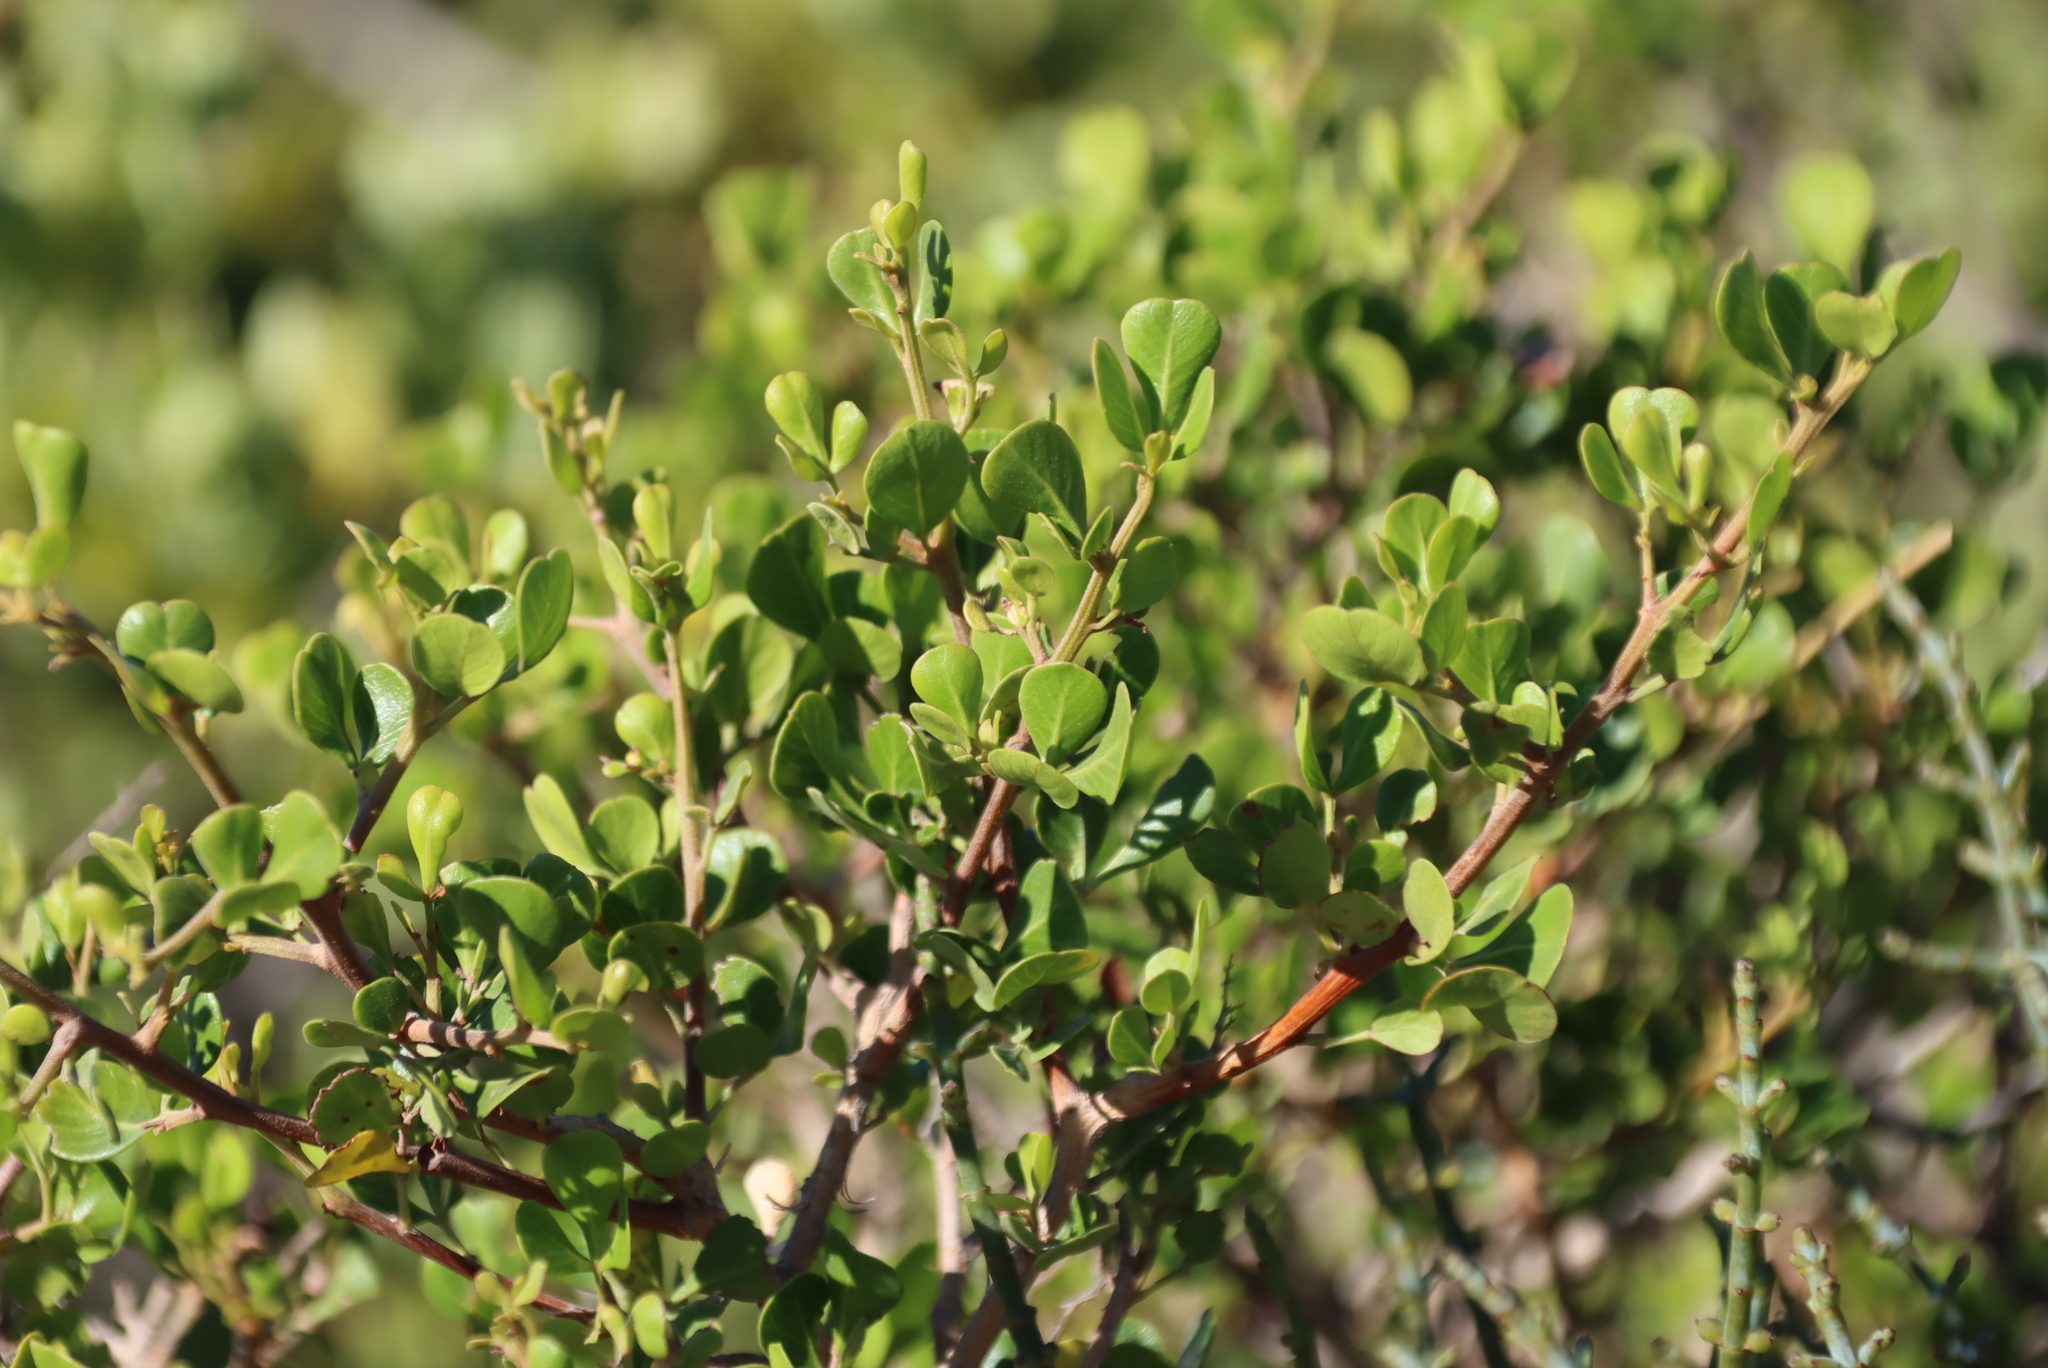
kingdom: Plantae
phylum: Tracheophyta
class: Magnoliopsida
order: Sapindales
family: Anacardiaceae
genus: Searsia
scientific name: Searsia glauca
